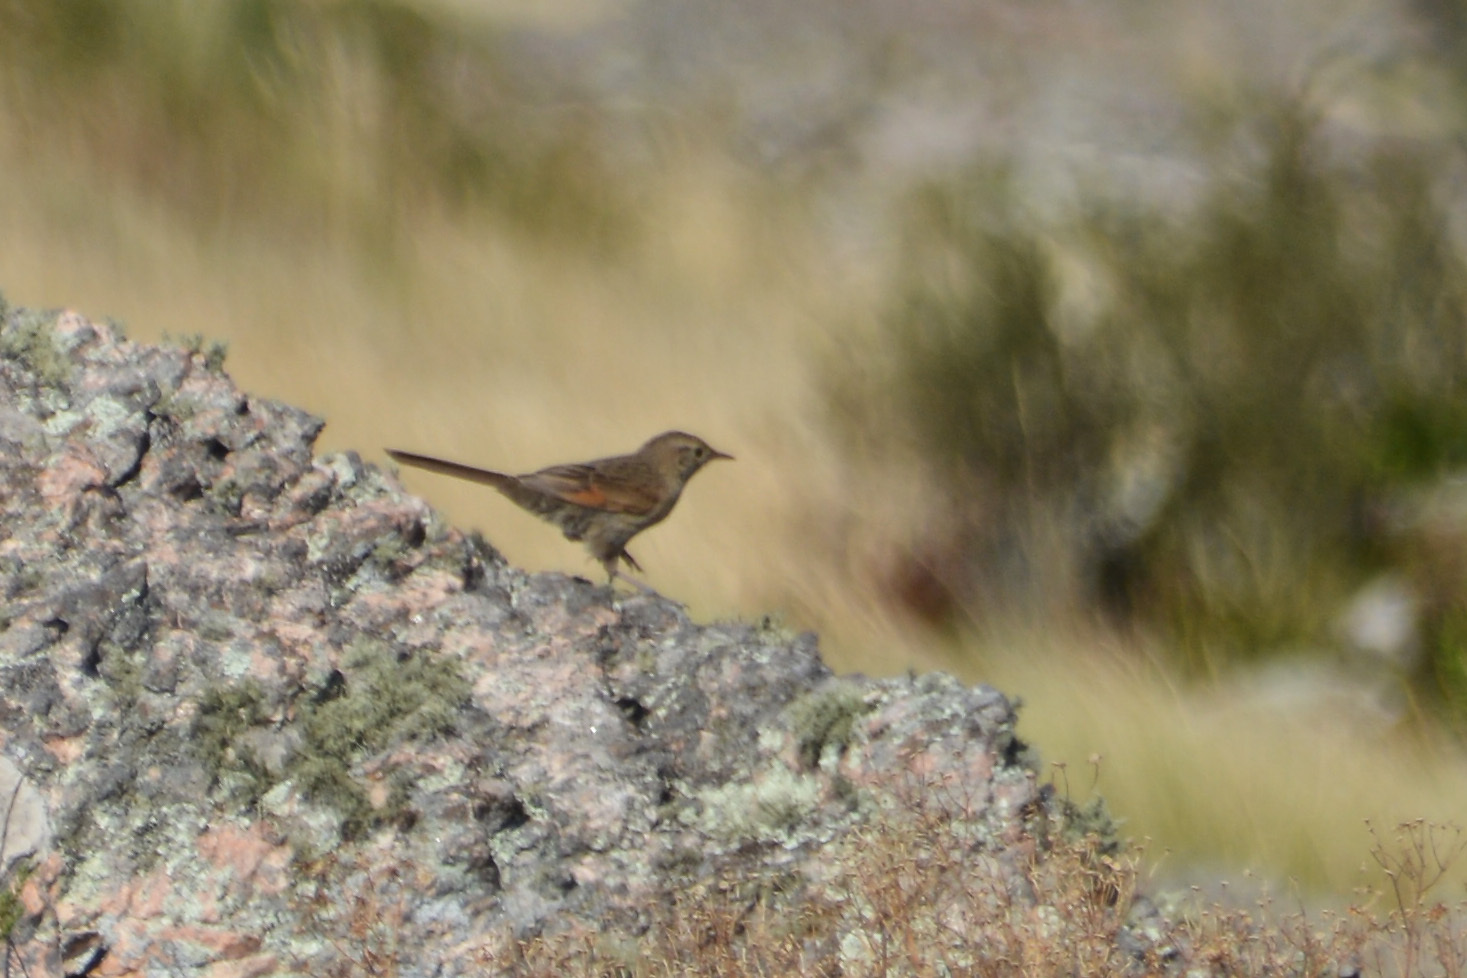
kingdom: Animalia
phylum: Chordata
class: Aves
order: Passeriformes
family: Furnariidae
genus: Asthenes
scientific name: Asthenes wyatti
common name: Streak-backed canastero
